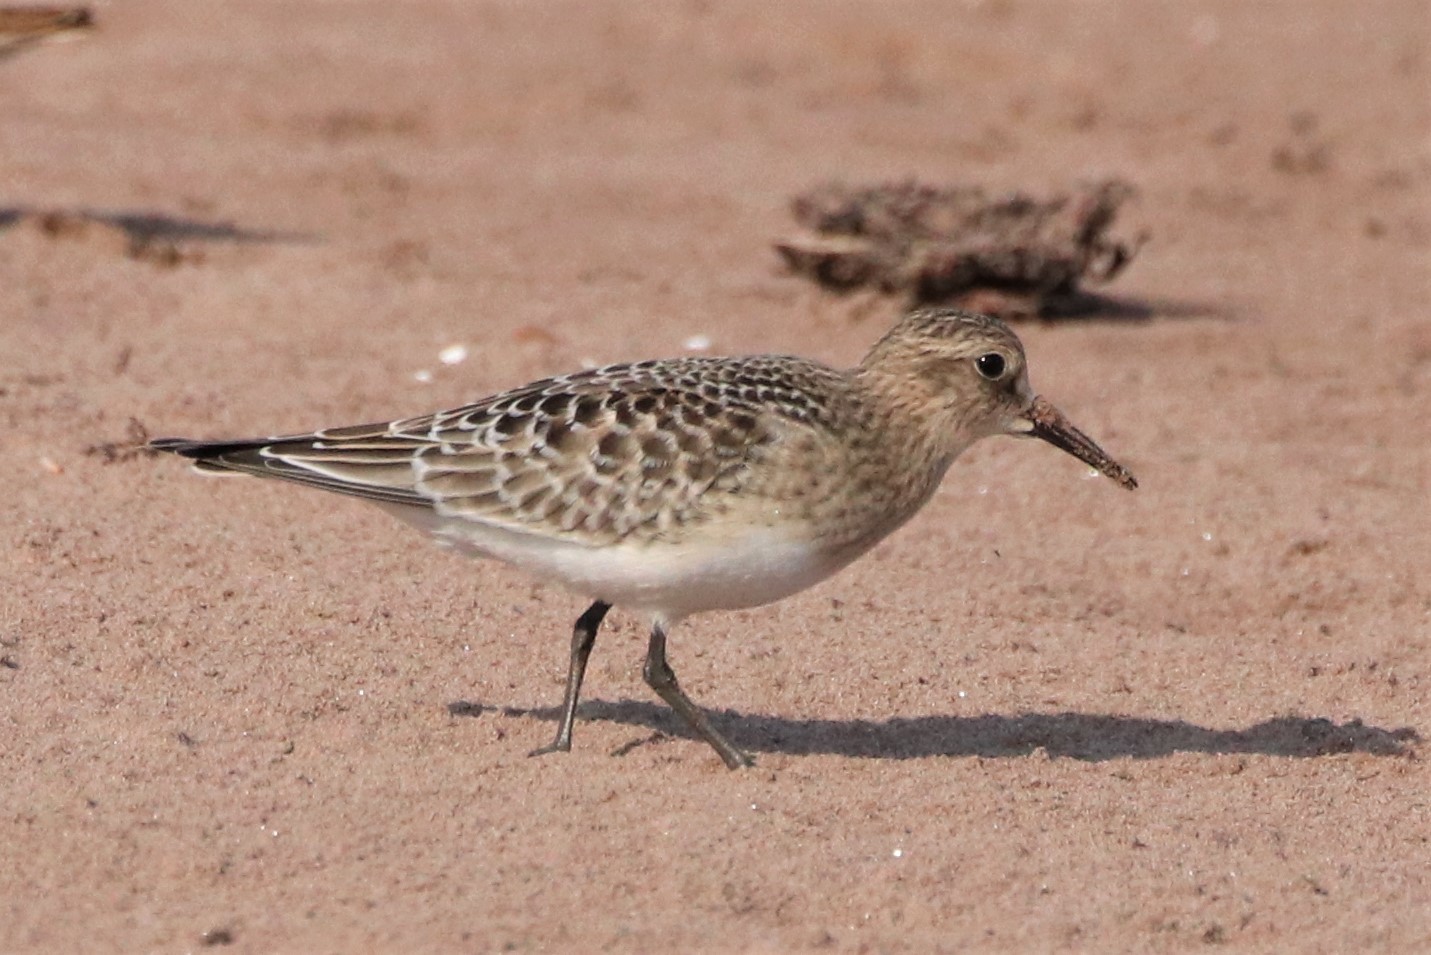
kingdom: Animalia
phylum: Chordata
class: Aves
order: Charadriiformes
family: Scolopacidae
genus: Calidris
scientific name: Calidris bairdii
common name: Baird's sandpiper
